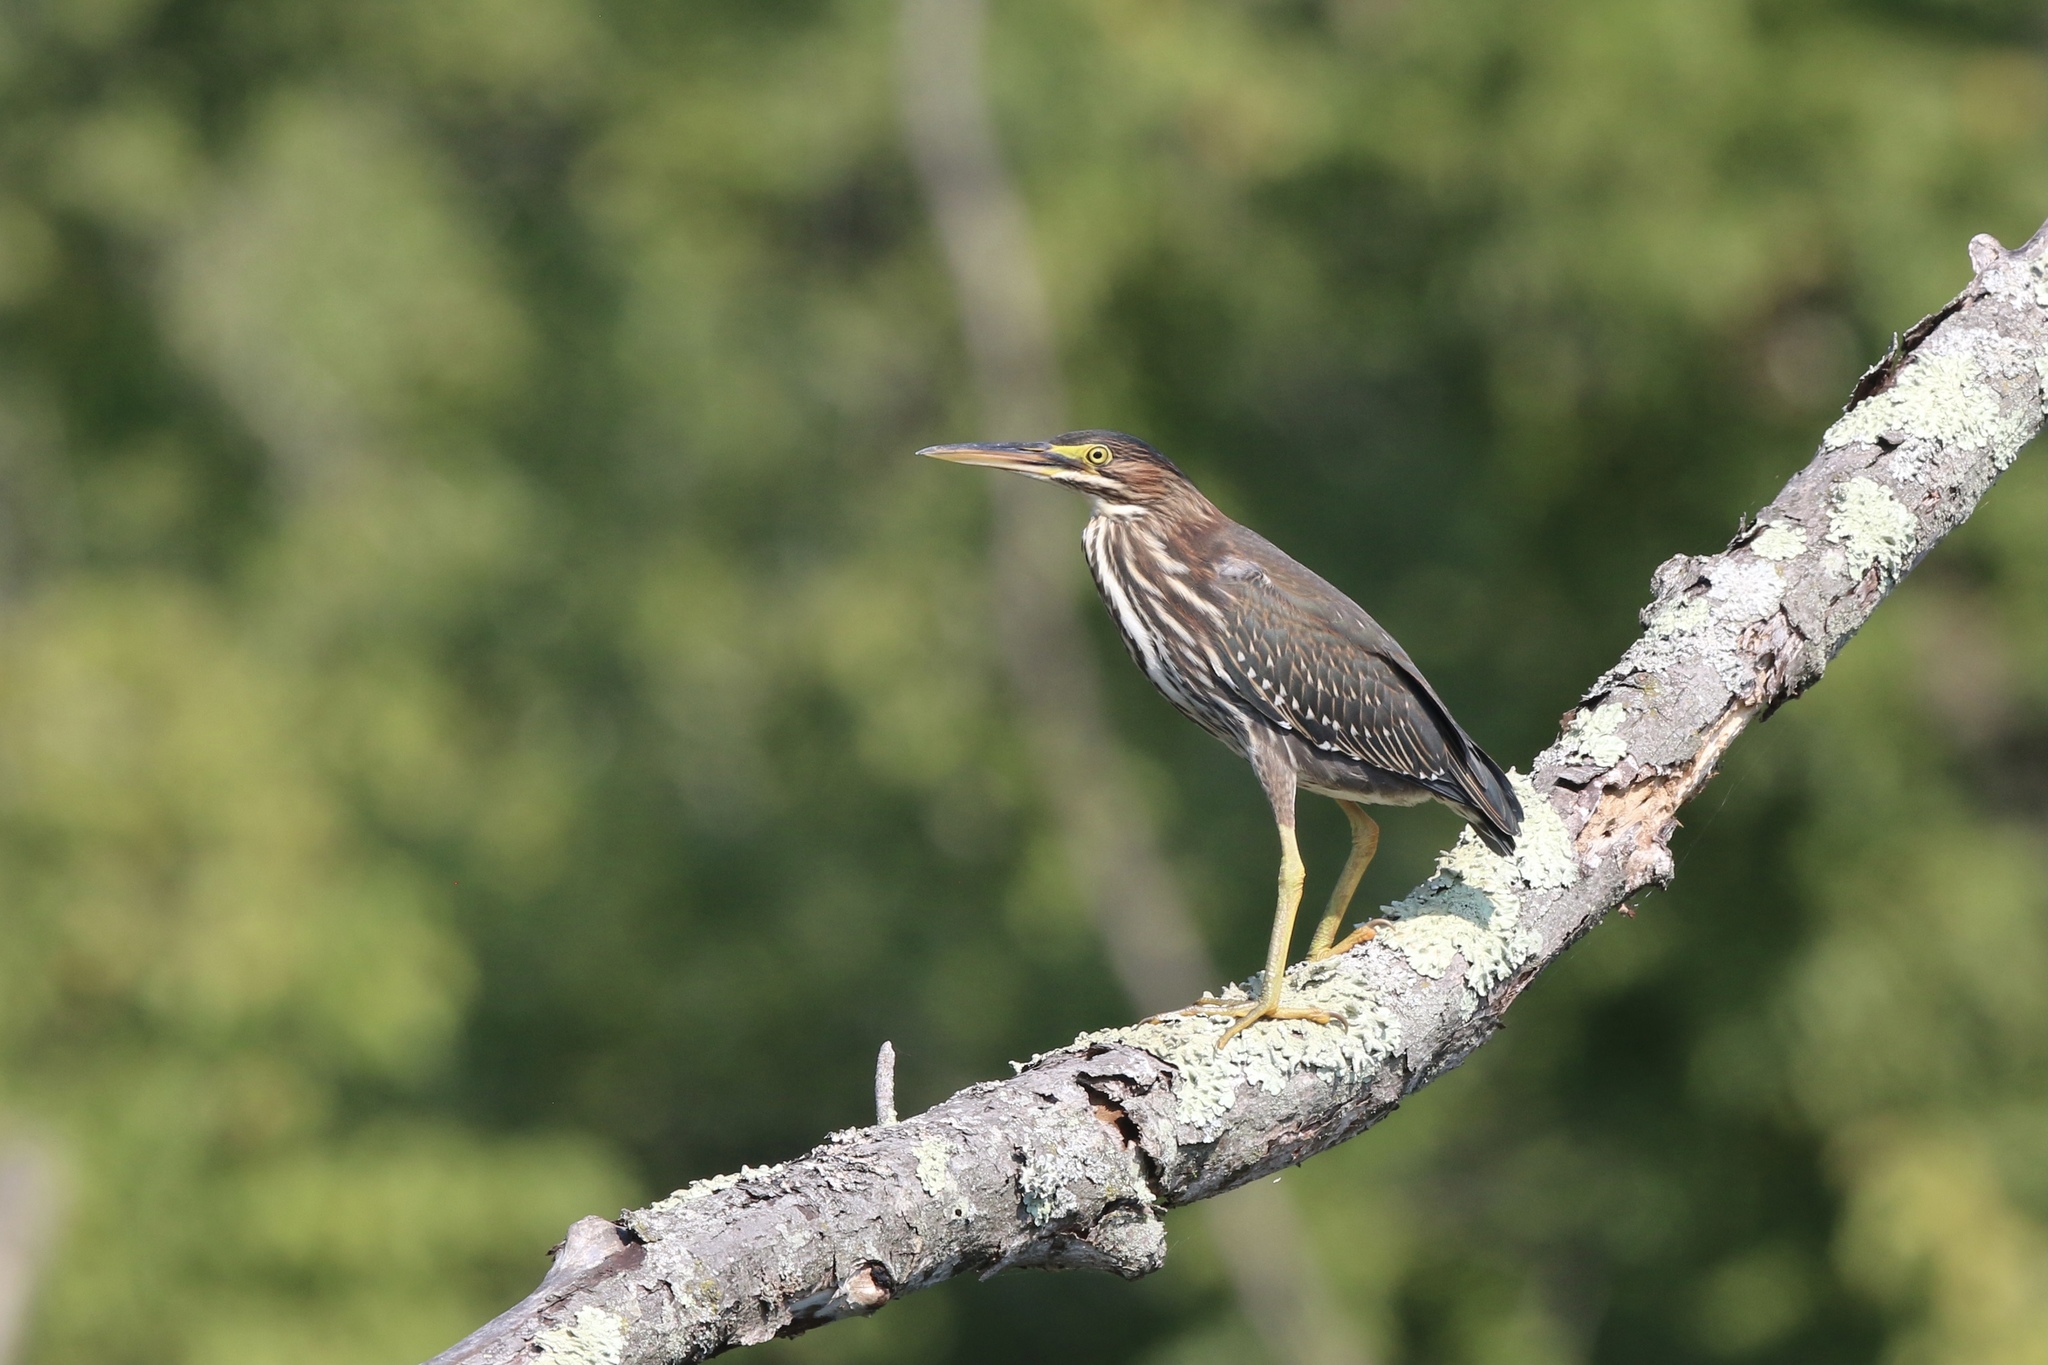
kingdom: Animalia
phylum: Chordata
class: Aves
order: Pelecaniformes
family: Ardeidae
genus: Butorides
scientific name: Butorides virescens
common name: Green heron
